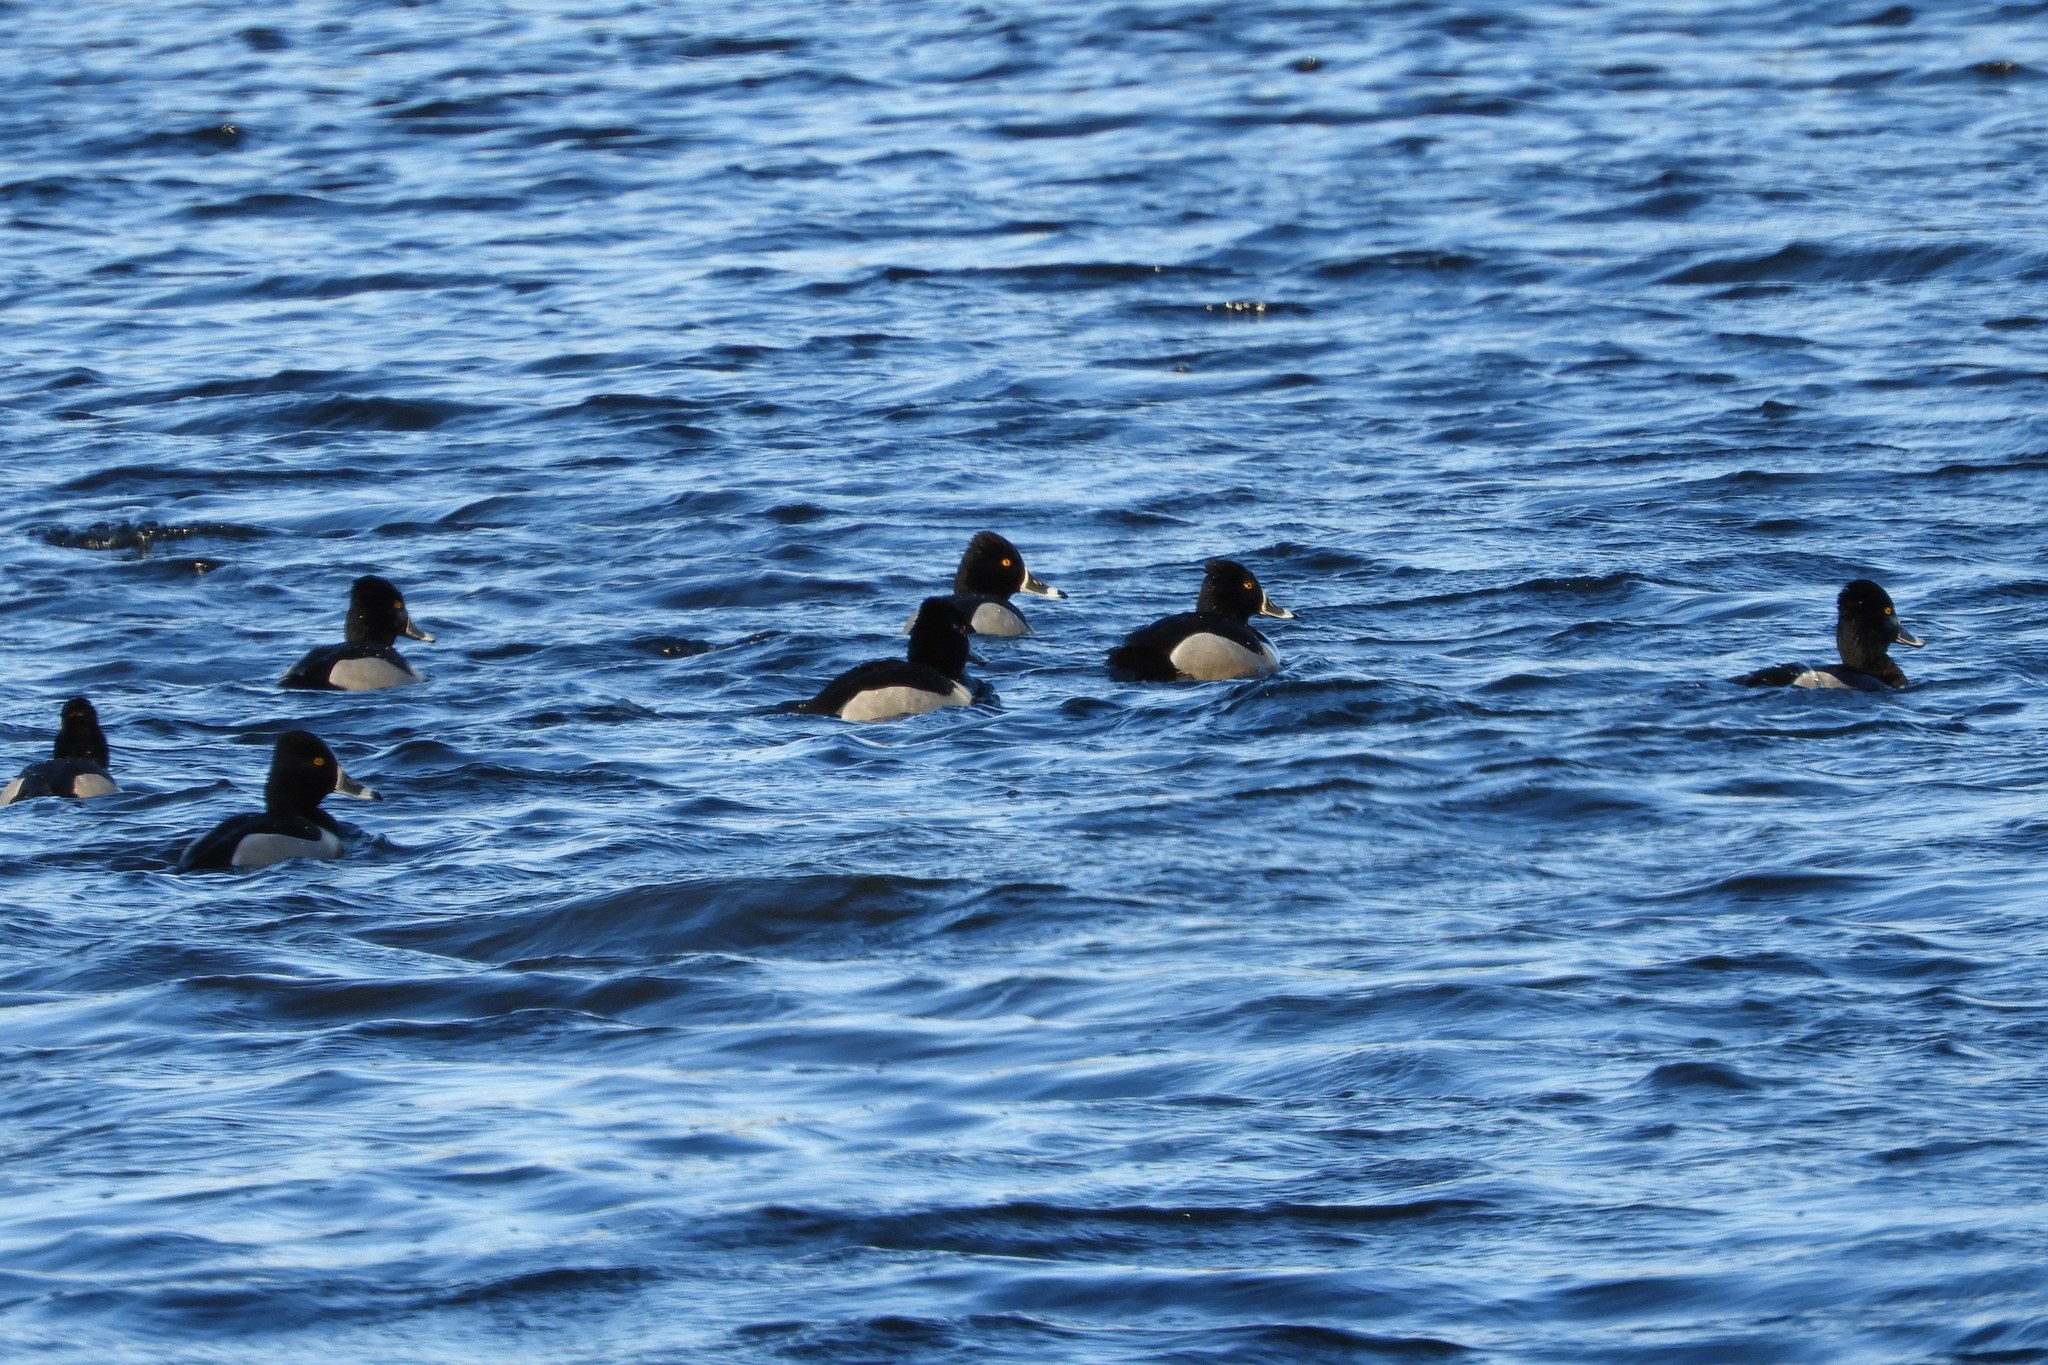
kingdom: Animalia
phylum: Chordata
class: Aves
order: Anseriformes
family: Anatidae
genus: Aythya
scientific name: Aythya collaris
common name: Ring-necked duck
